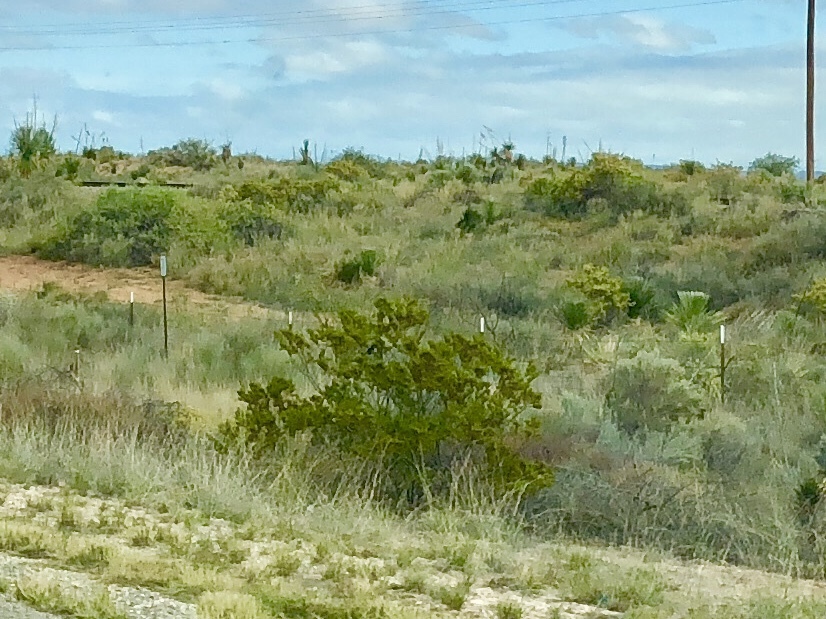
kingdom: Plantae
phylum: Tracheophyta
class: Magnoliopsida
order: Zygophyllales
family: Zygophyllaceae
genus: Larrea
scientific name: Larrea tridentata
